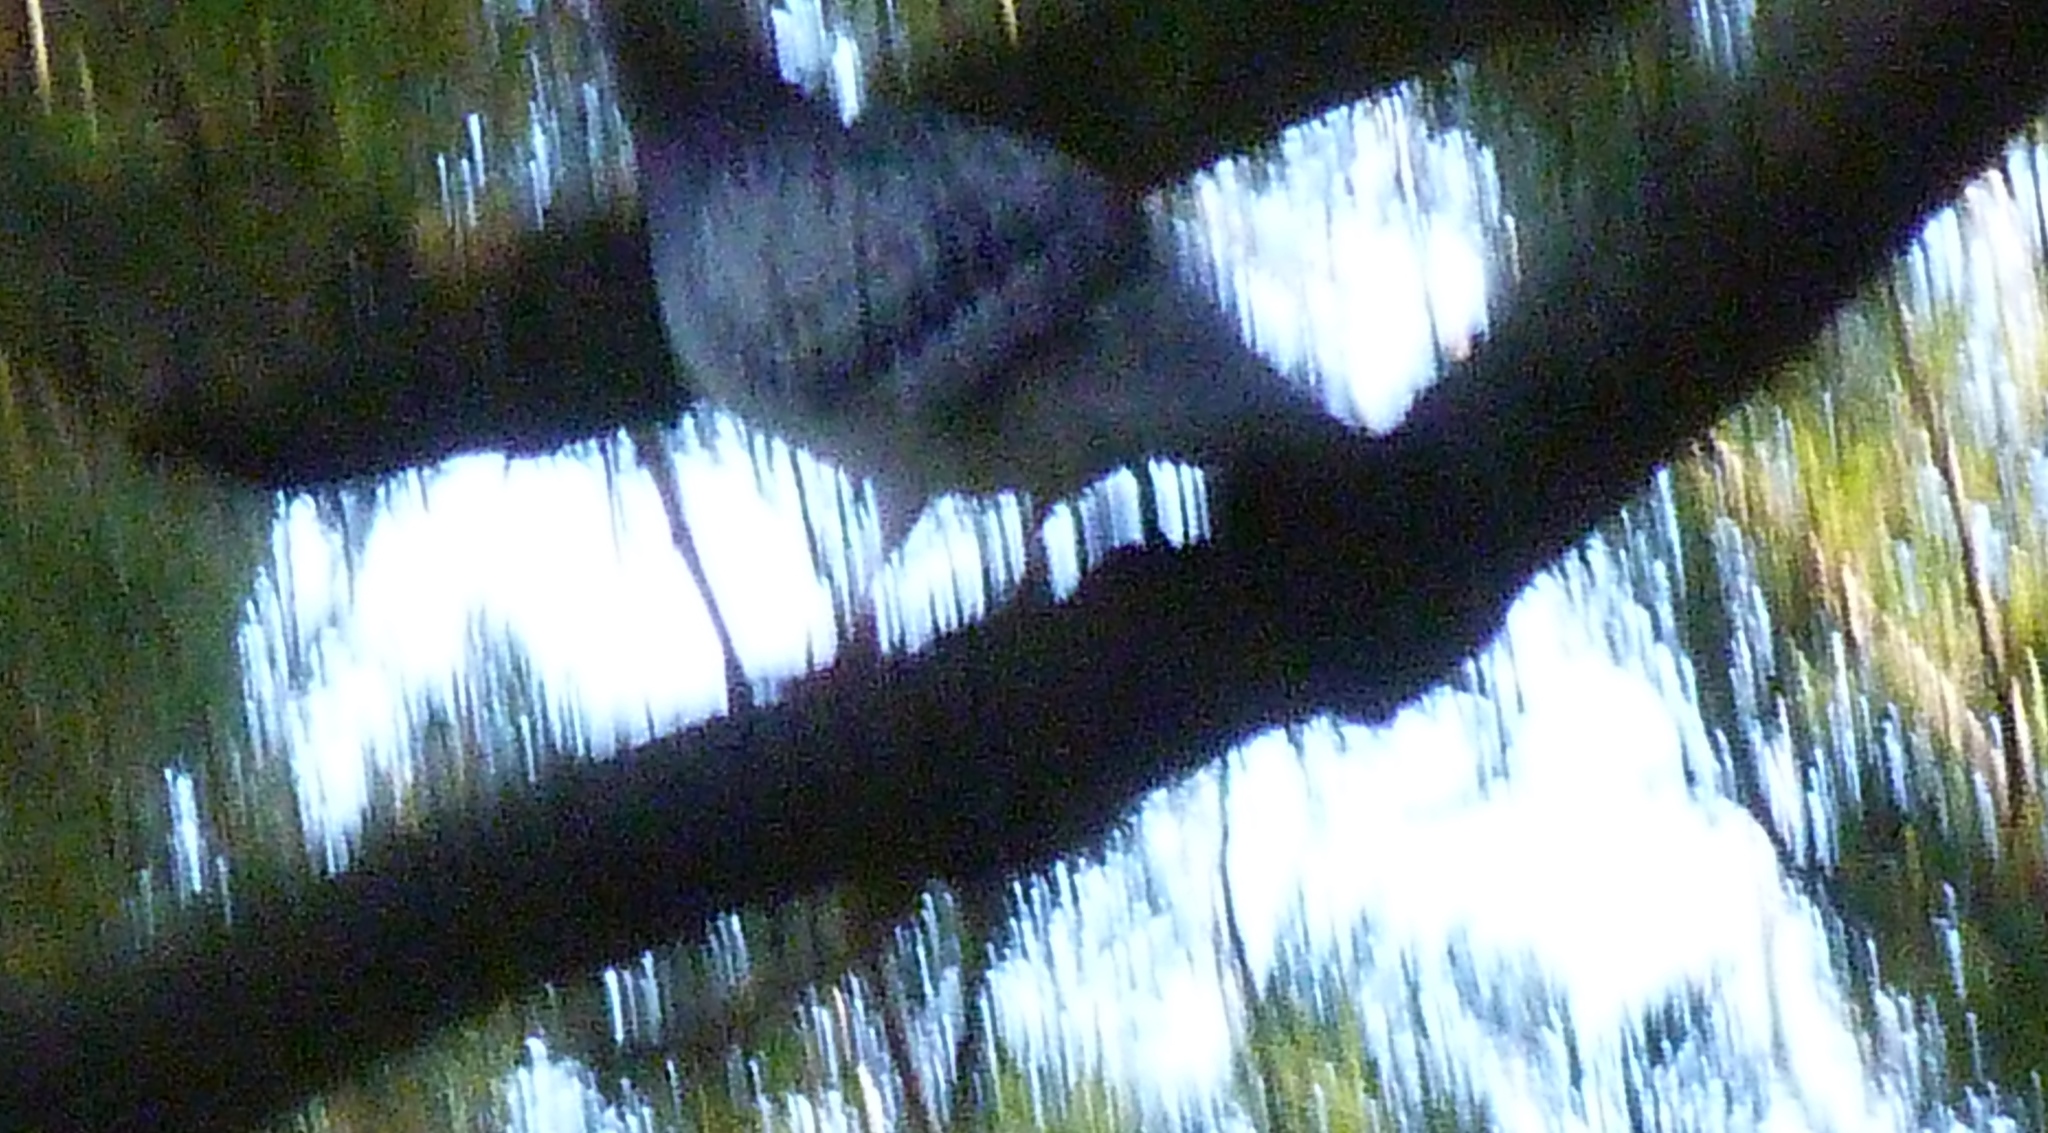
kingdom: Animalia
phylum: Chordata
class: Aves
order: Columbiformes
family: Columbidae
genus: Columba
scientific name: Columba livia
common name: Rock pigeon
